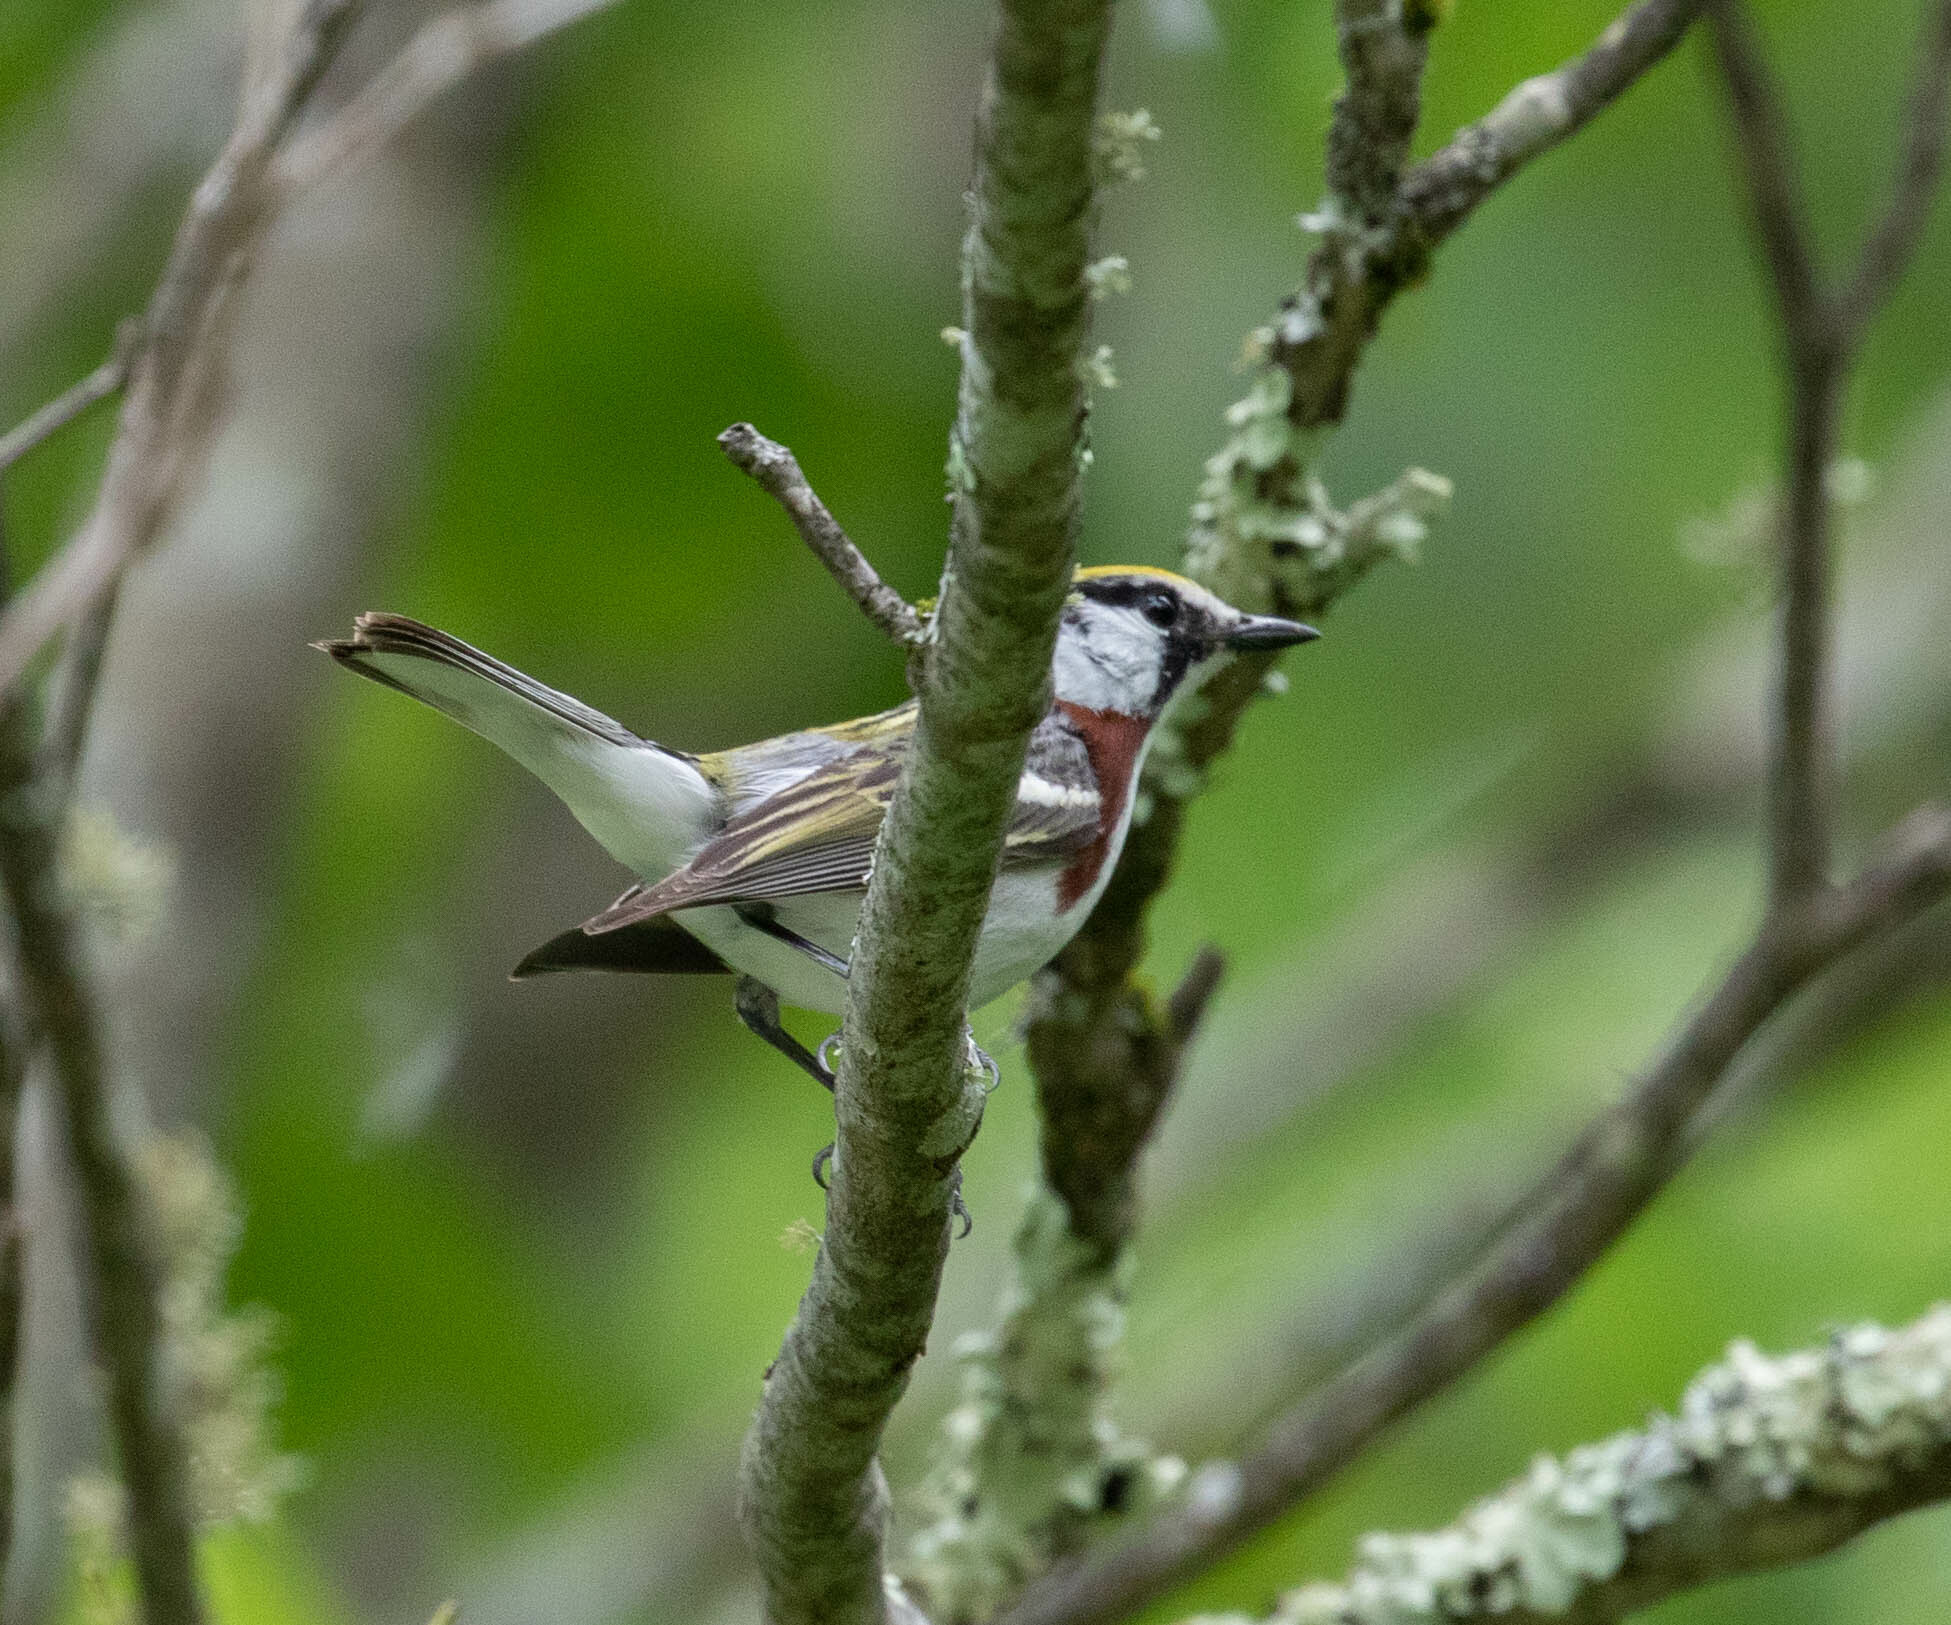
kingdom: Animalia
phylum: Chordata
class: Aves
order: Passeriformes
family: Parulidae
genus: Setophaga
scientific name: Setophaga pensylvanica
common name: Chestnut-sided warbler
